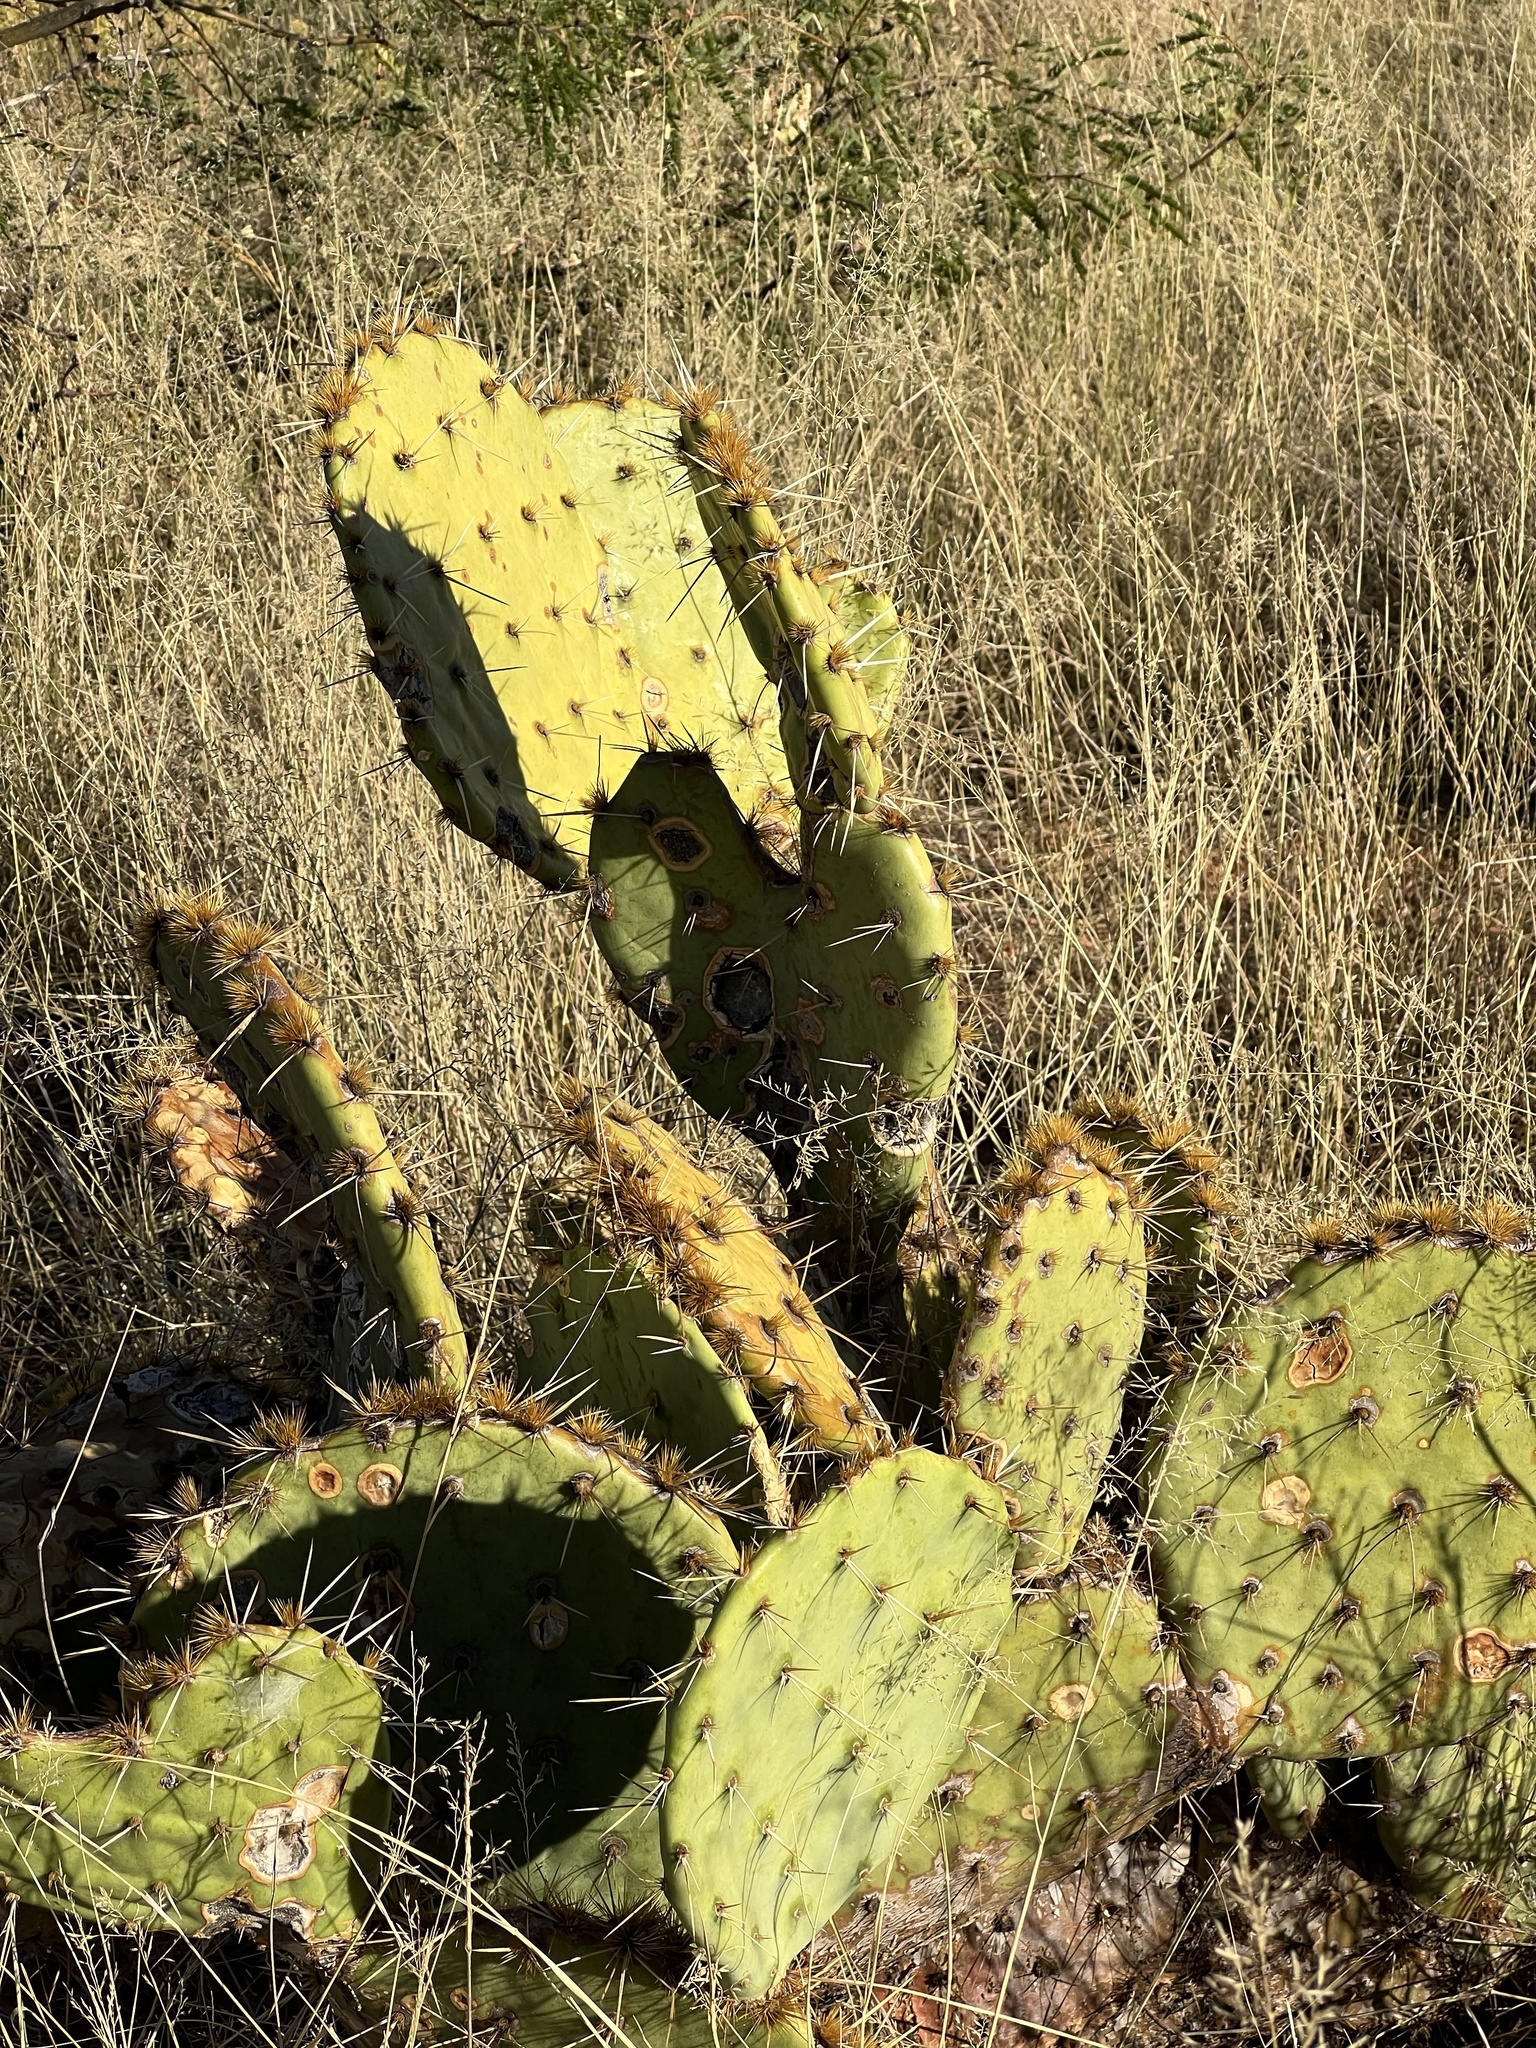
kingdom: Plantae
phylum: Tracheophyta
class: Magnoliopsida
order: Caryophyllales
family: Cactaceae
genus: Opuntia
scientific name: Opuntia engelmannii
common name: Cactus-apple
